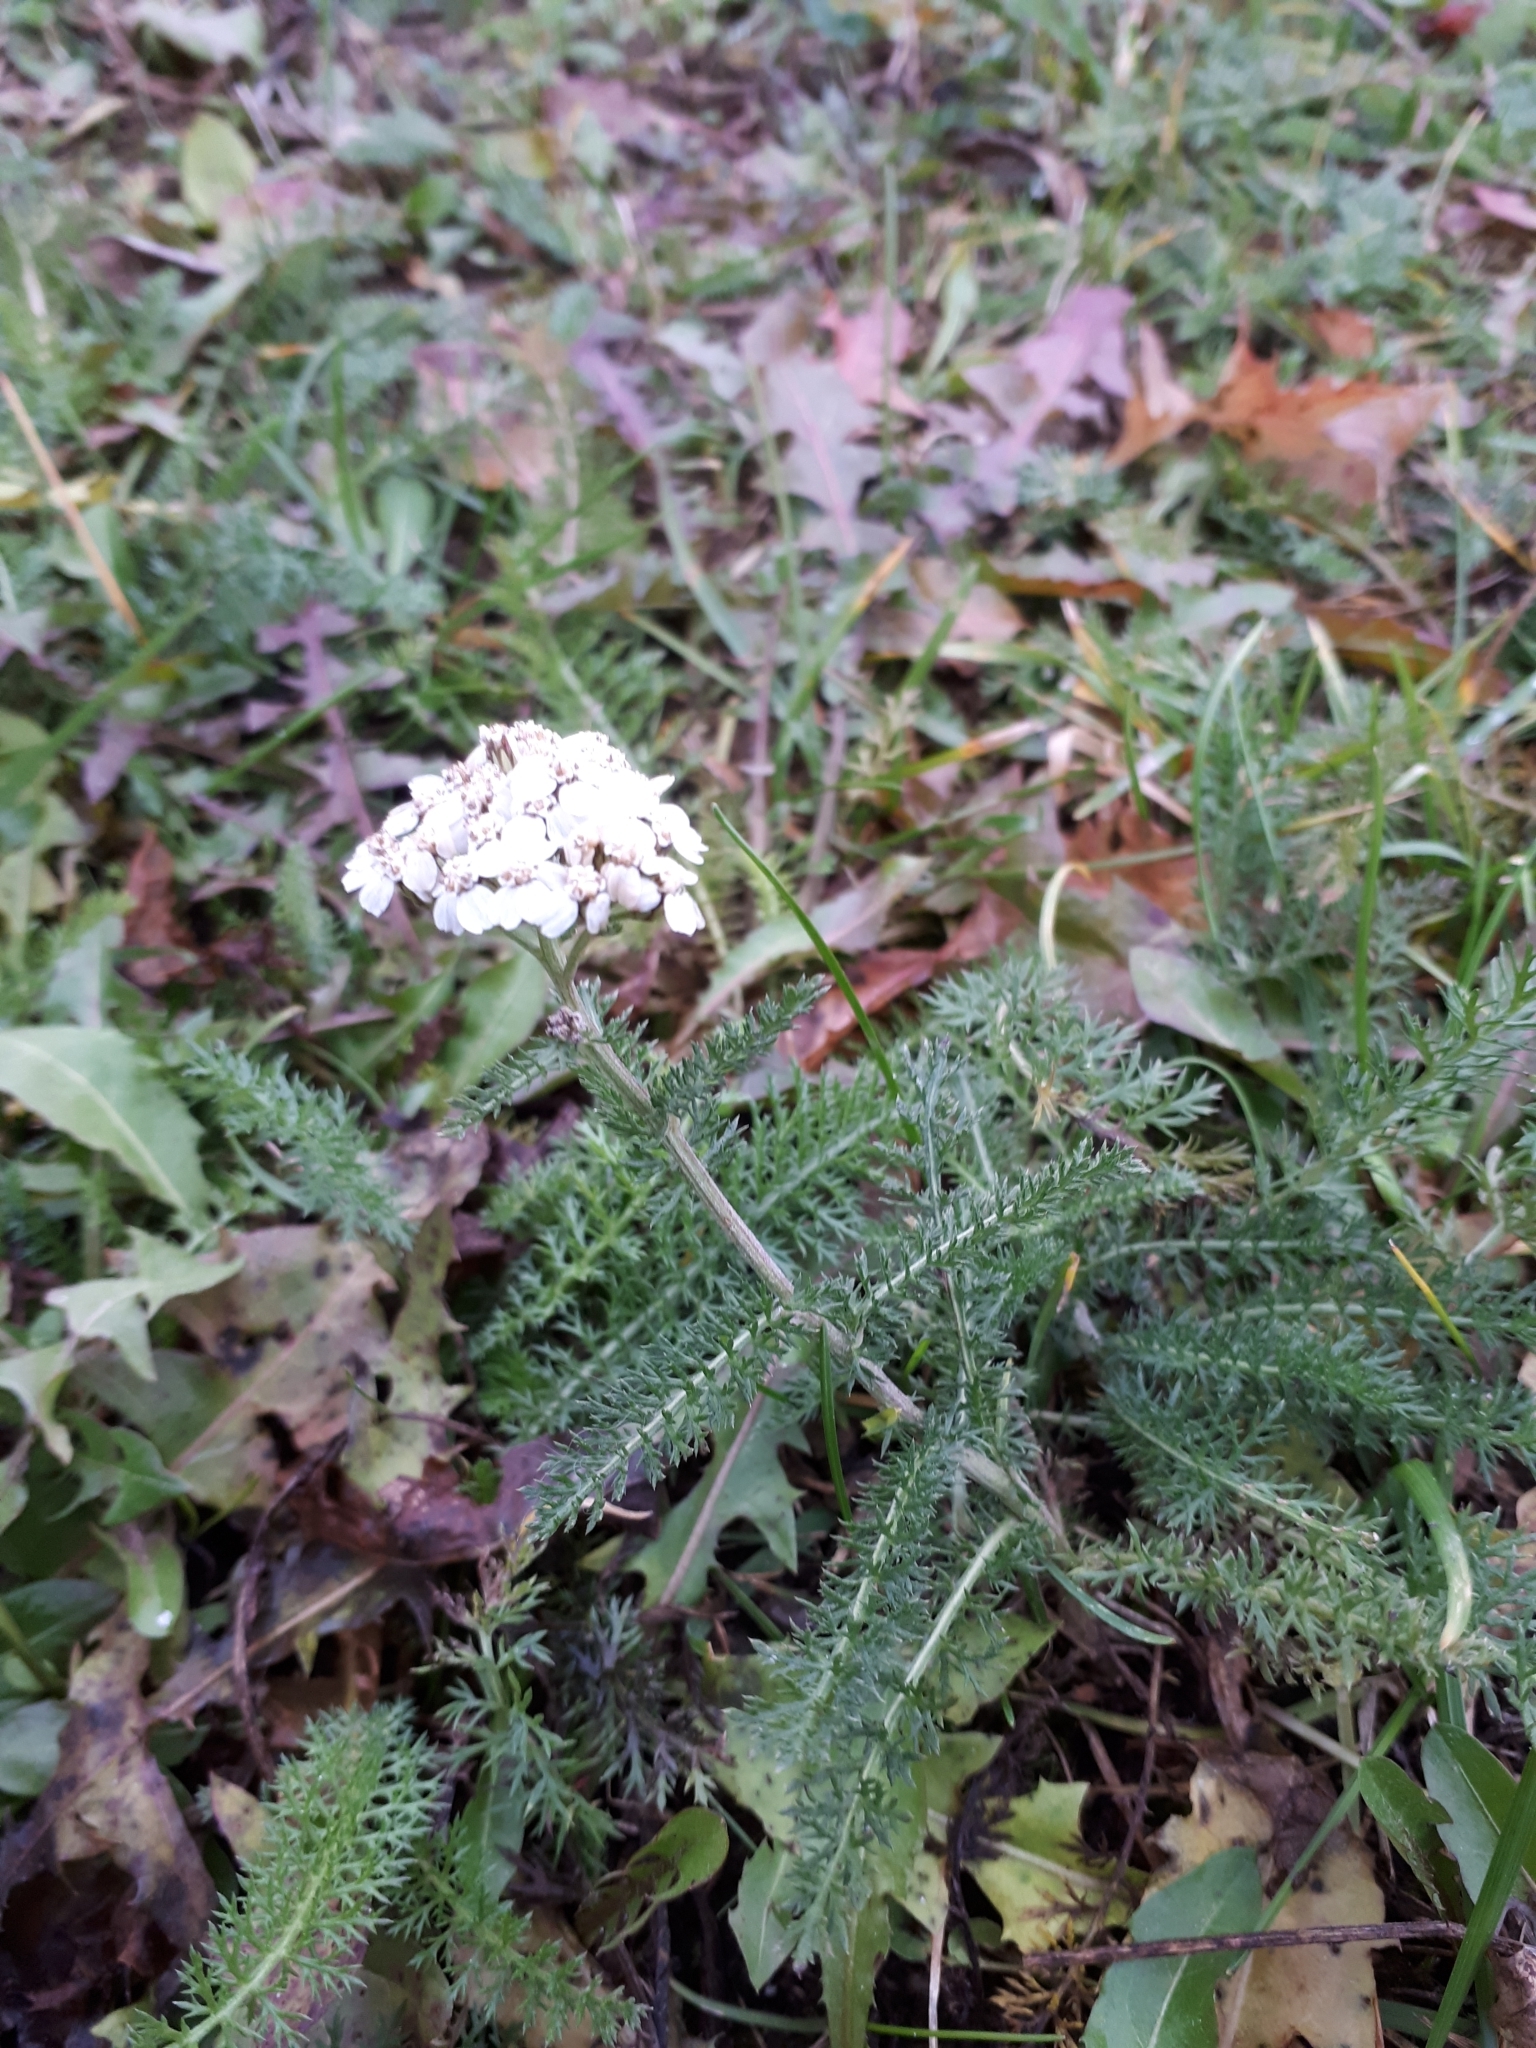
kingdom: Plantae
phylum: Tracheophyta
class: Magnoliopsida
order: Asterales
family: Asteraceae
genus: Achillea
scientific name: Achillea millefolium
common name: Yarrow
